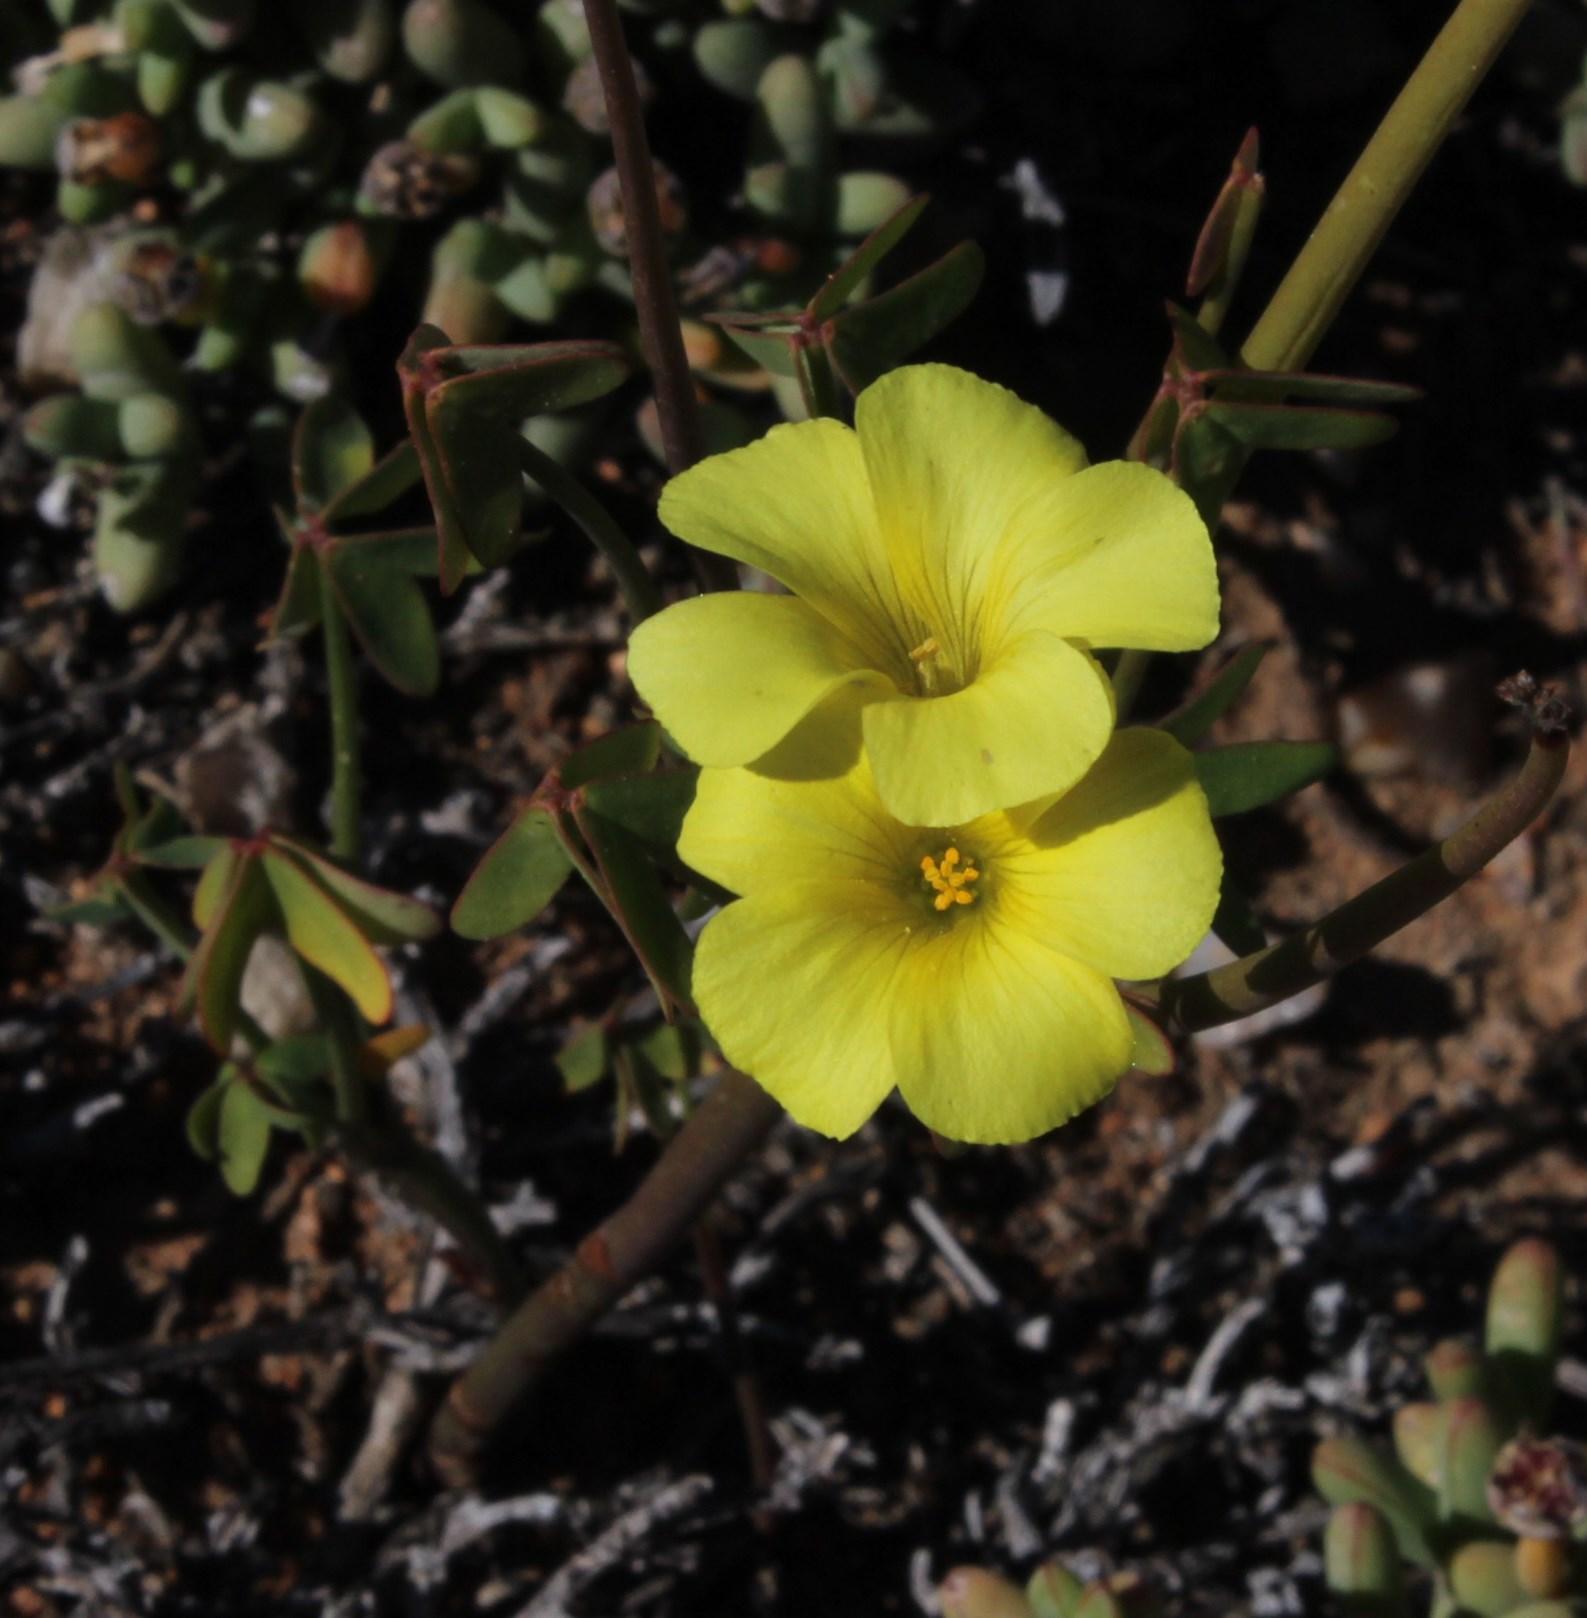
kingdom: Plantae
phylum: Tracheophyta
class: Magnoliopsida
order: Oxalidales
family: Oxalidaceae
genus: Oxalis
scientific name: Oxalis pes-caprae
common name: Bermuda-buttercup
